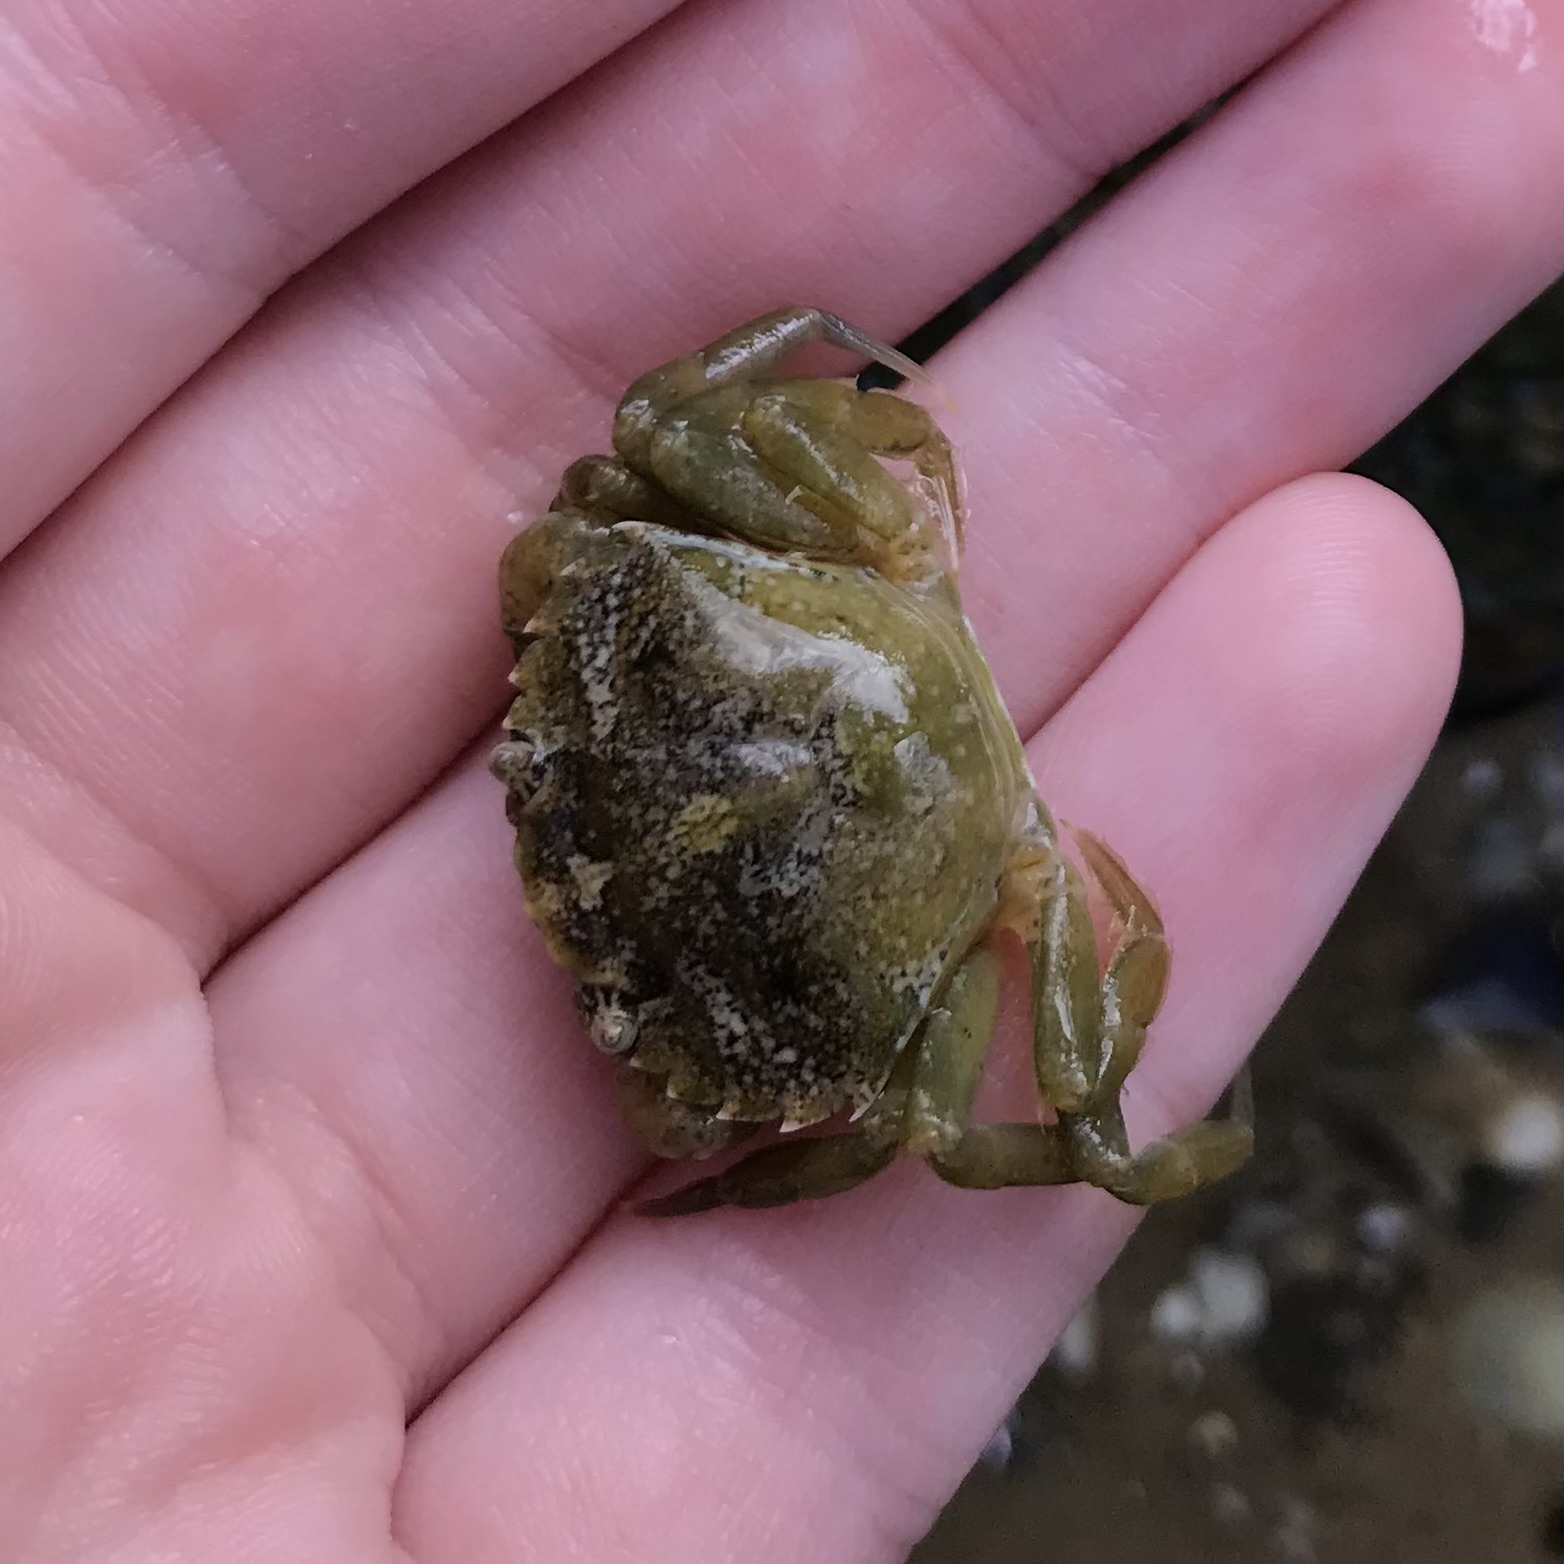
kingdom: Animalia
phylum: Arthropoda
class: Malacostraca
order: Decapoda
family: Carcinidae
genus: Carcinus
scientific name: Carcinus maenas
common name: European green crab
